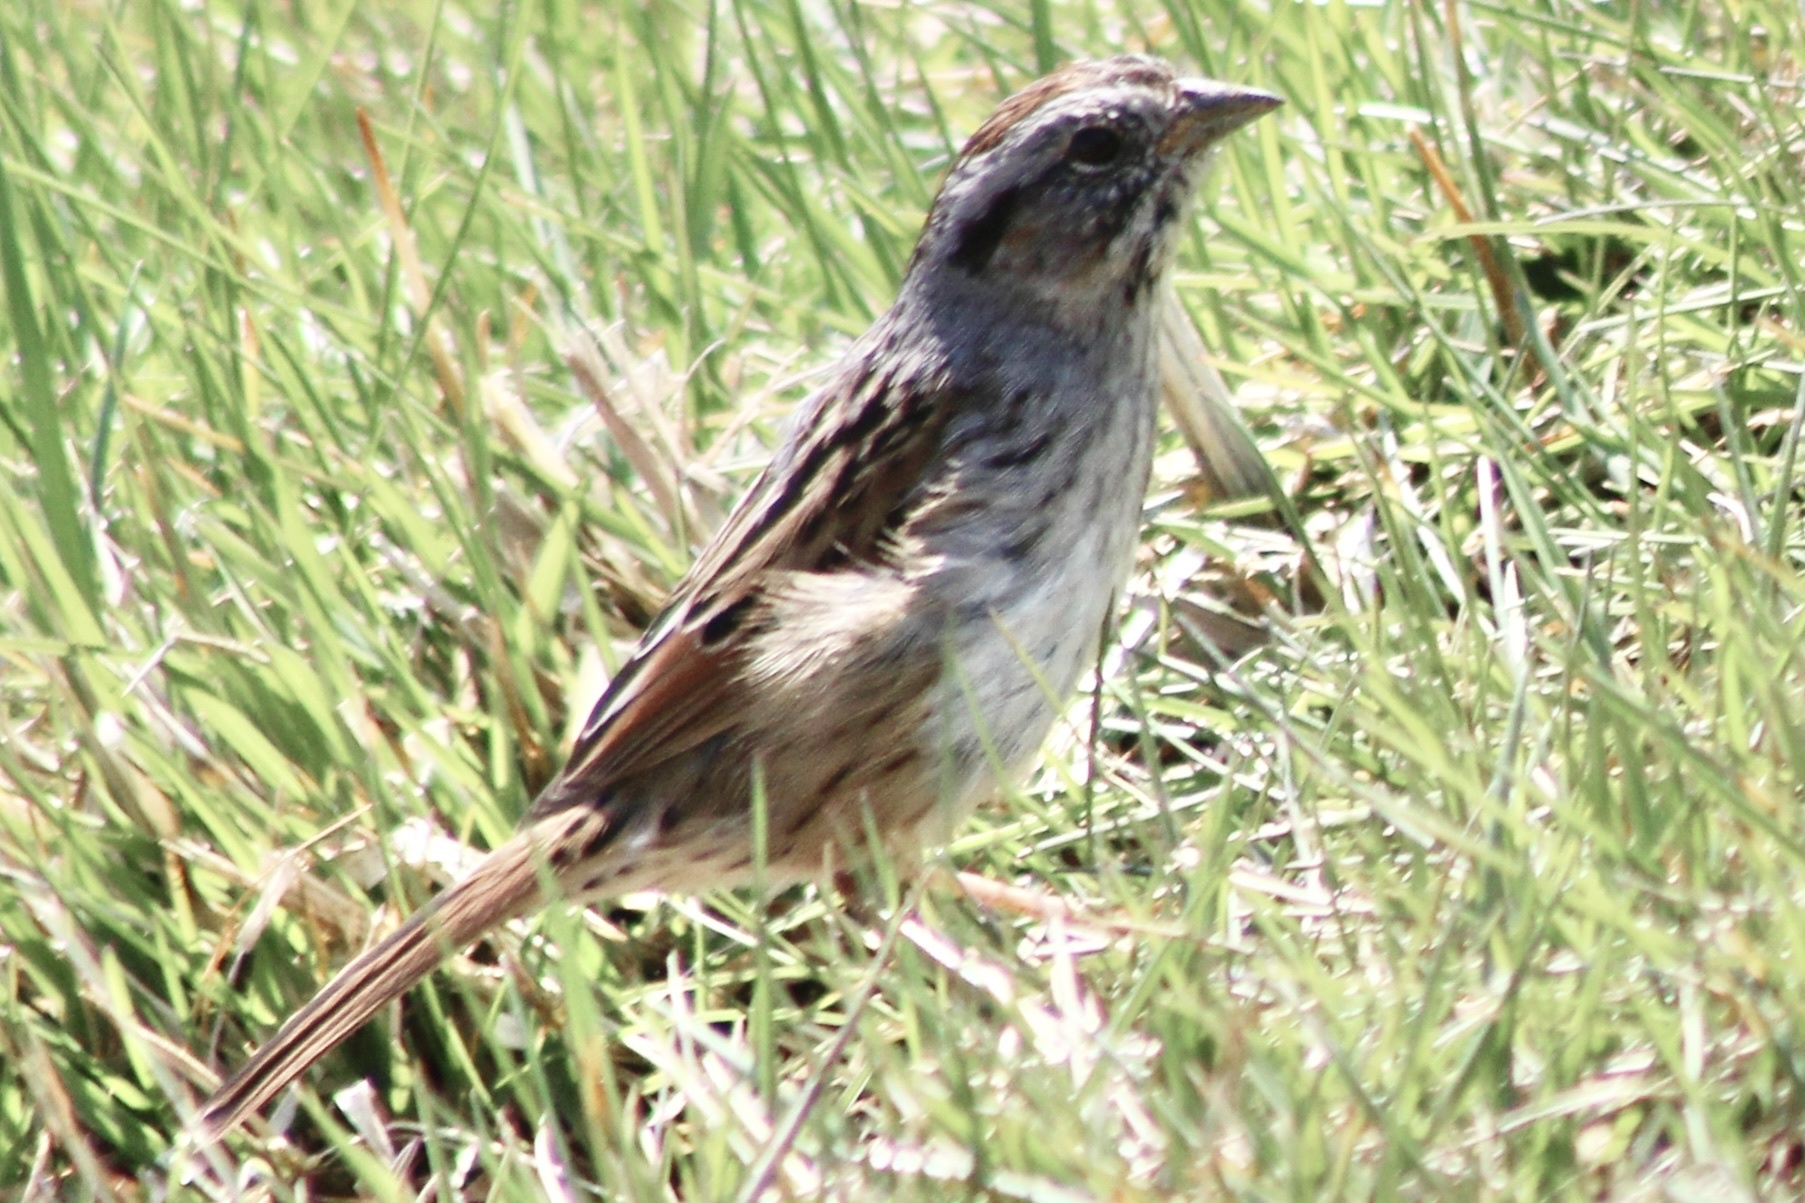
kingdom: Animalia
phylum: Chordata
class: Aves
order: Passeriformes
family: Passerellidae
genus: Melospiza
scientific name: Melospiza georgiana
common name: Swamp sparrow
